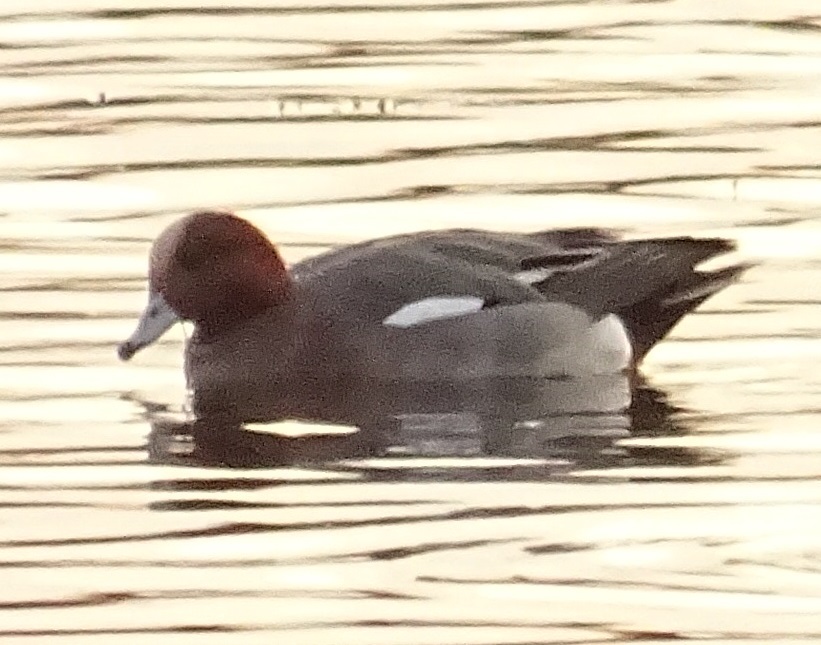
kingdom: Animalia
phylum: Chordata
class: Aves
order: Anseriformes
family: Anatidae
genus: Mareca
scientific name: Mareca penelope
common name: Eurasian wigeon
